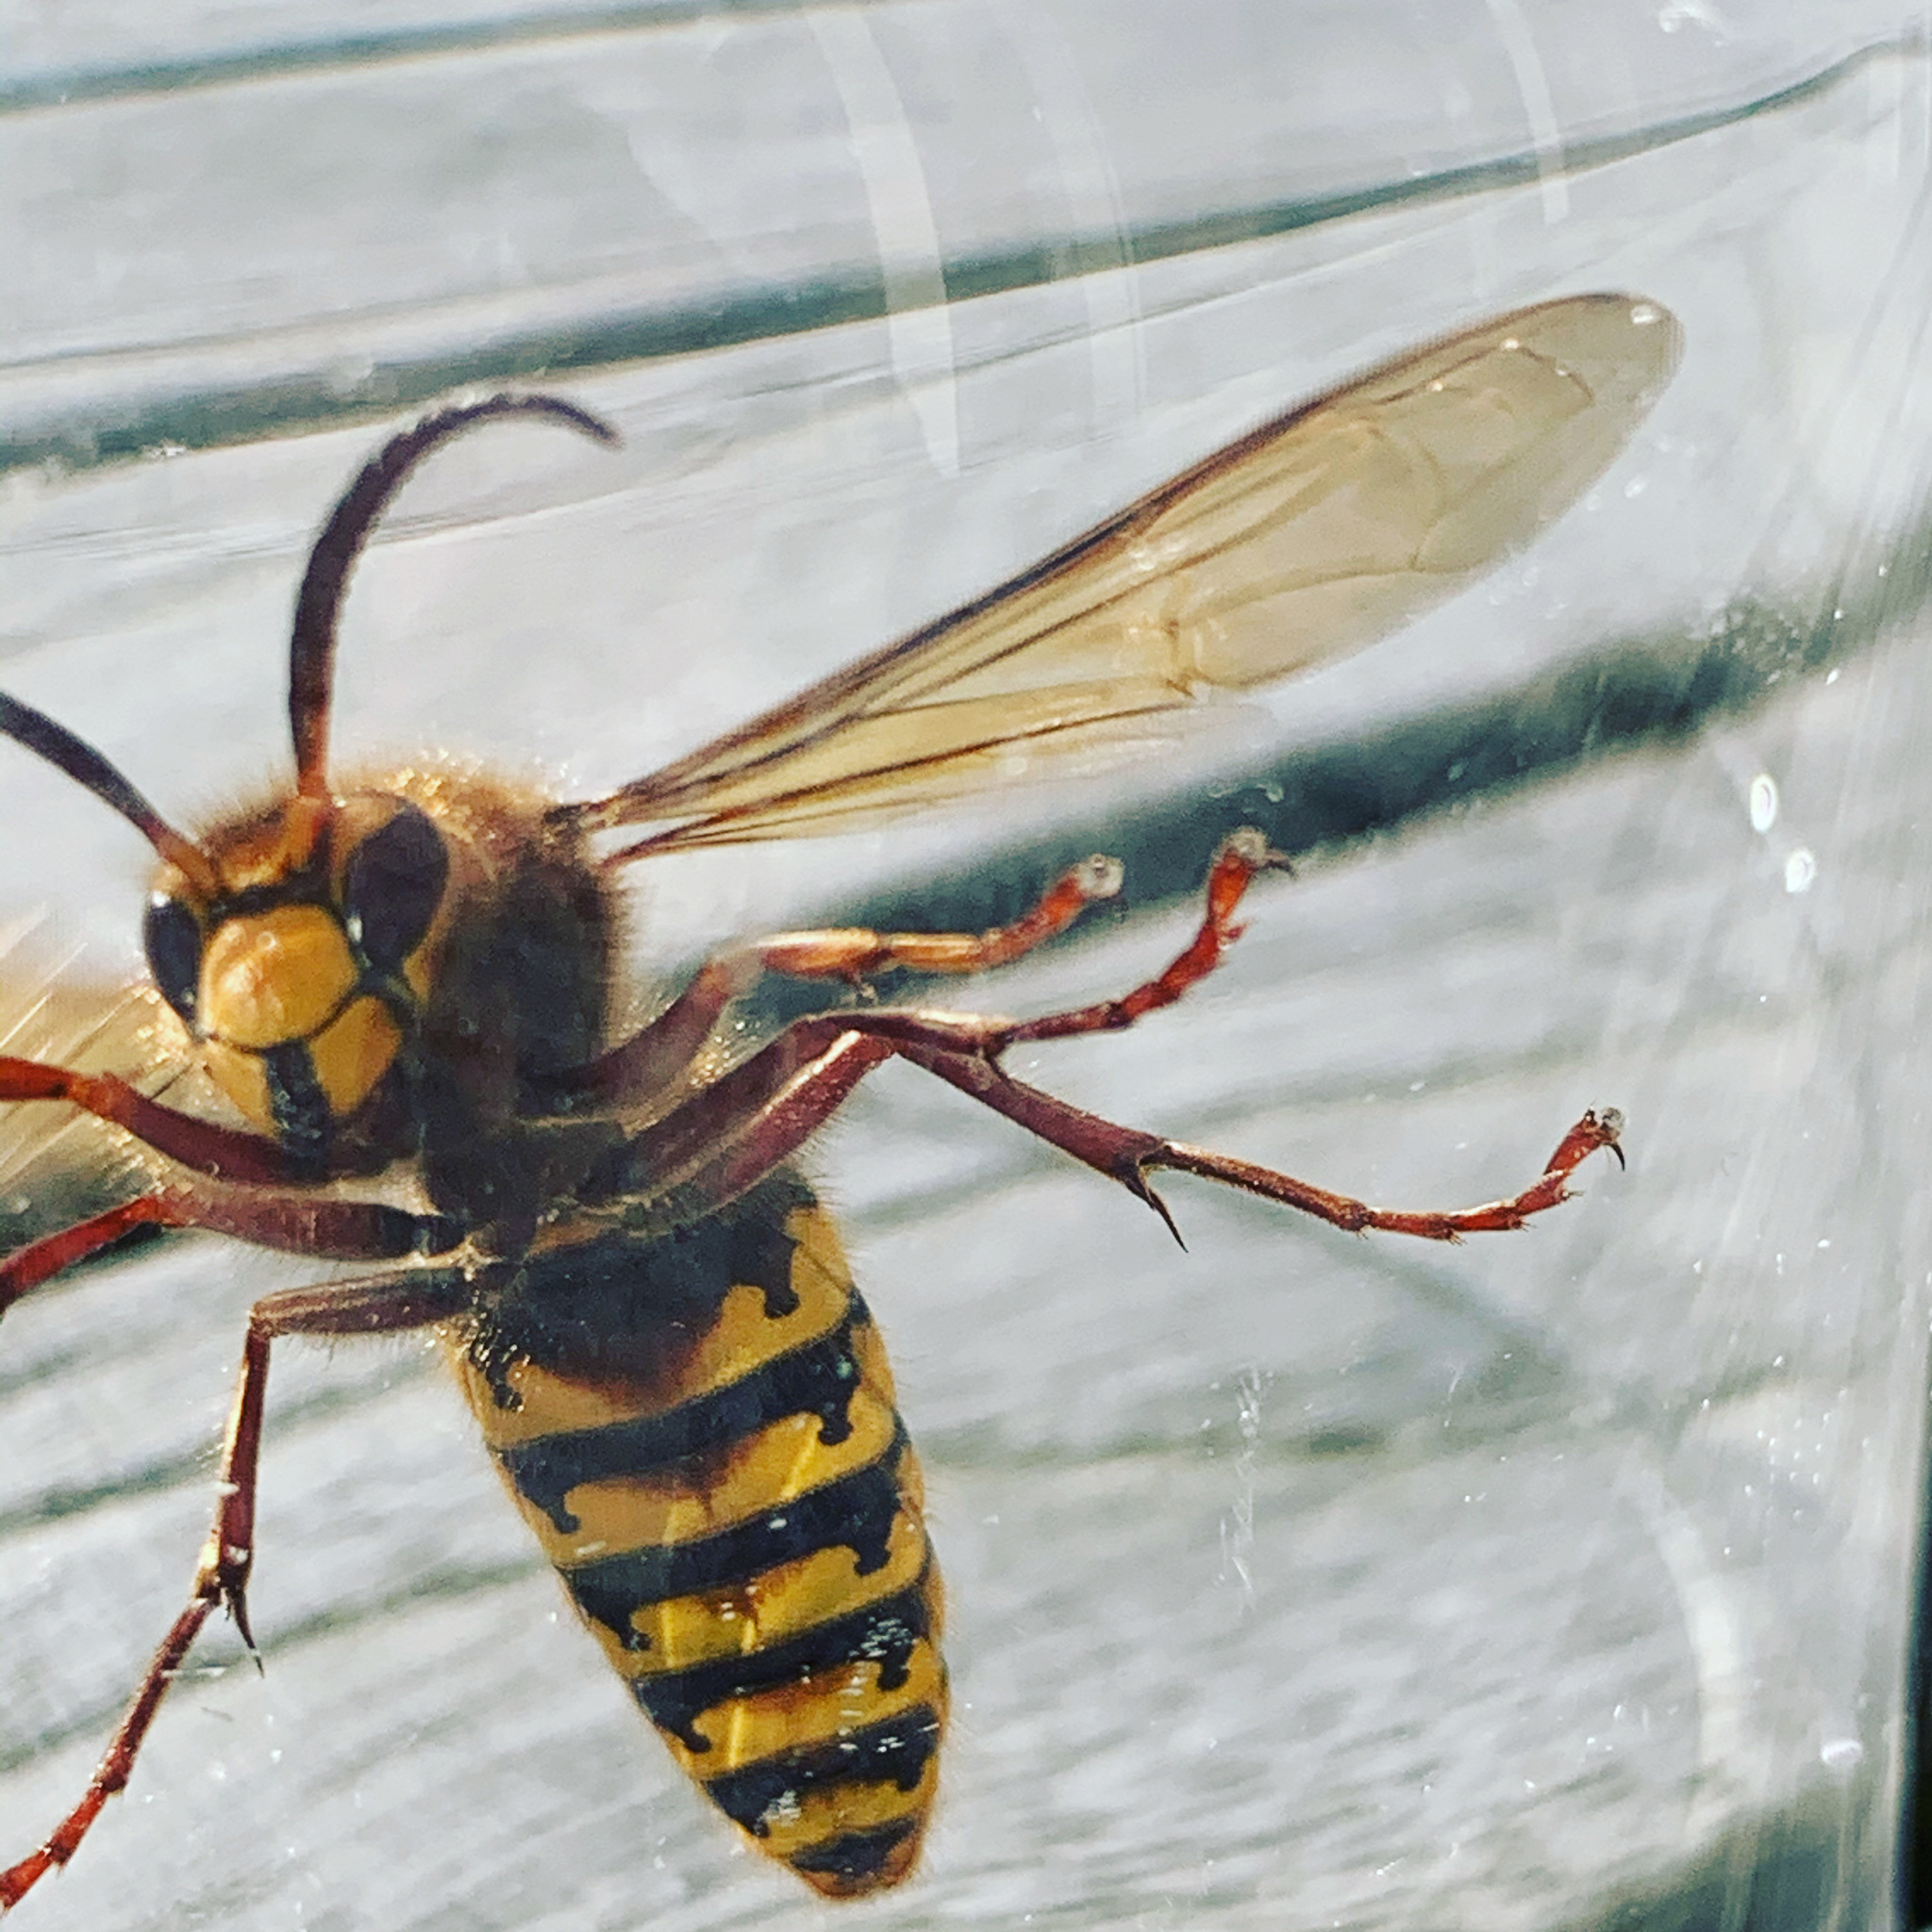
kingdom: Animalia
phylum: Arthropoda
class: Insecta
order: Hymenoptera
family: Vespidae
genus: Vespa
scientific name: Vespa crabro
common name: Hornet
